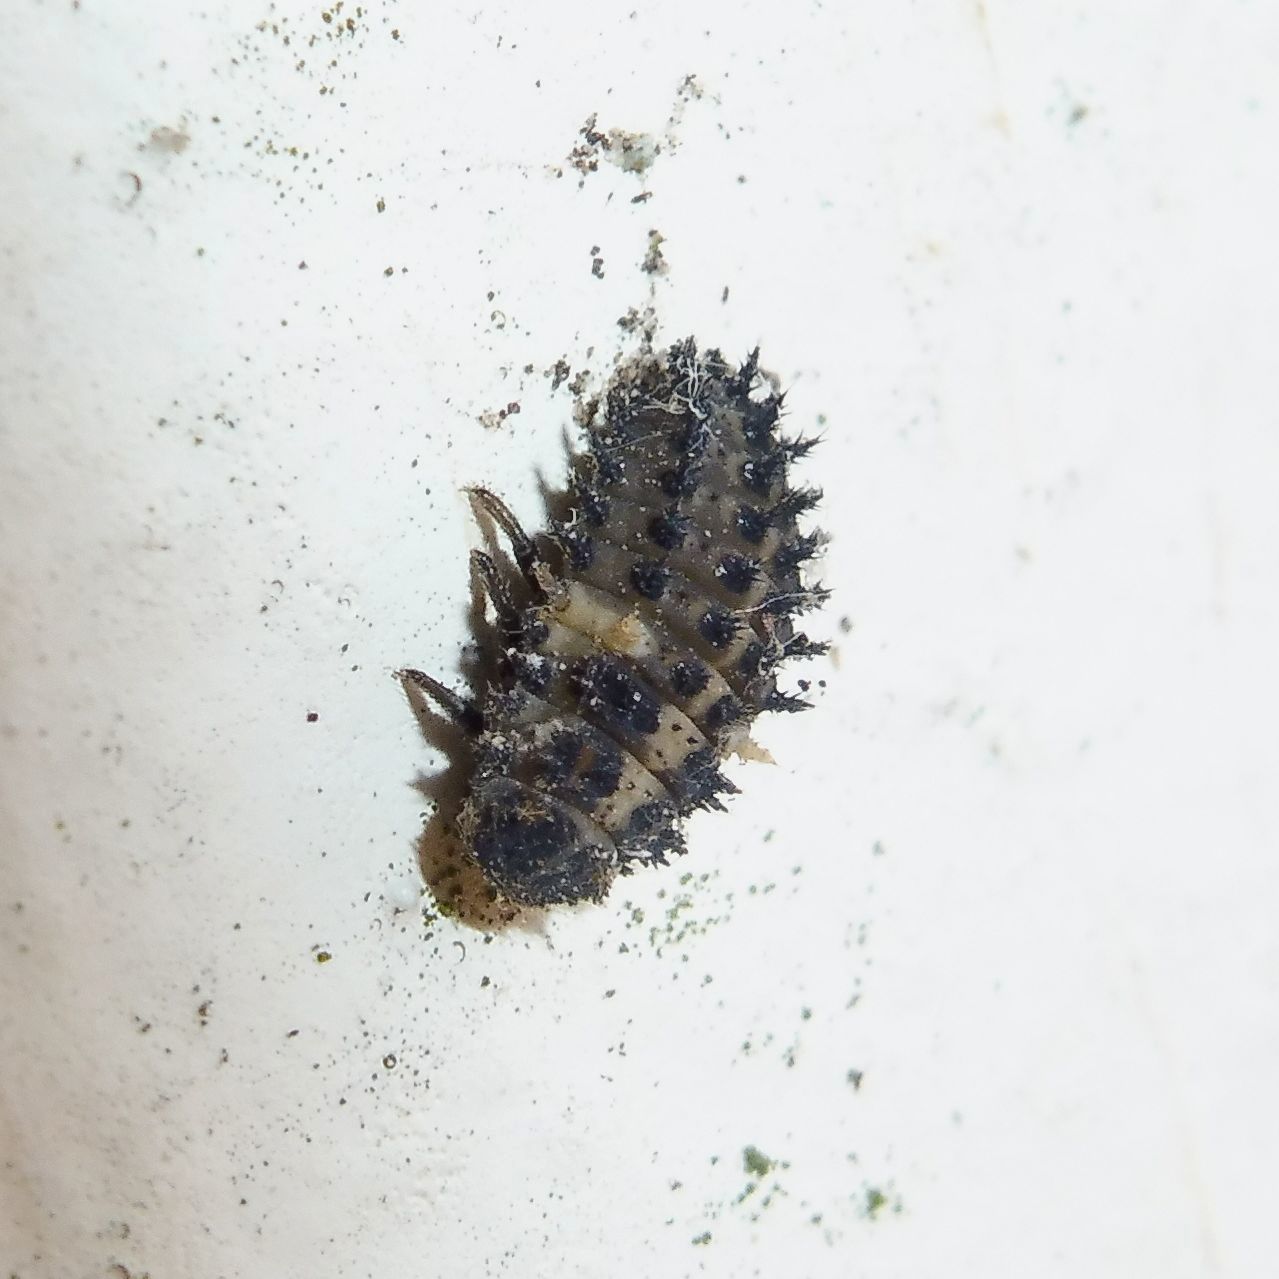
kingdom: Animalia
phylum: Arthropoda
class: Insecta
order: Coleoptera
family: Coccinellidae
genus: Brumus
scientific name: Brumus quadripustulatus
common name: Ladybird beetle
